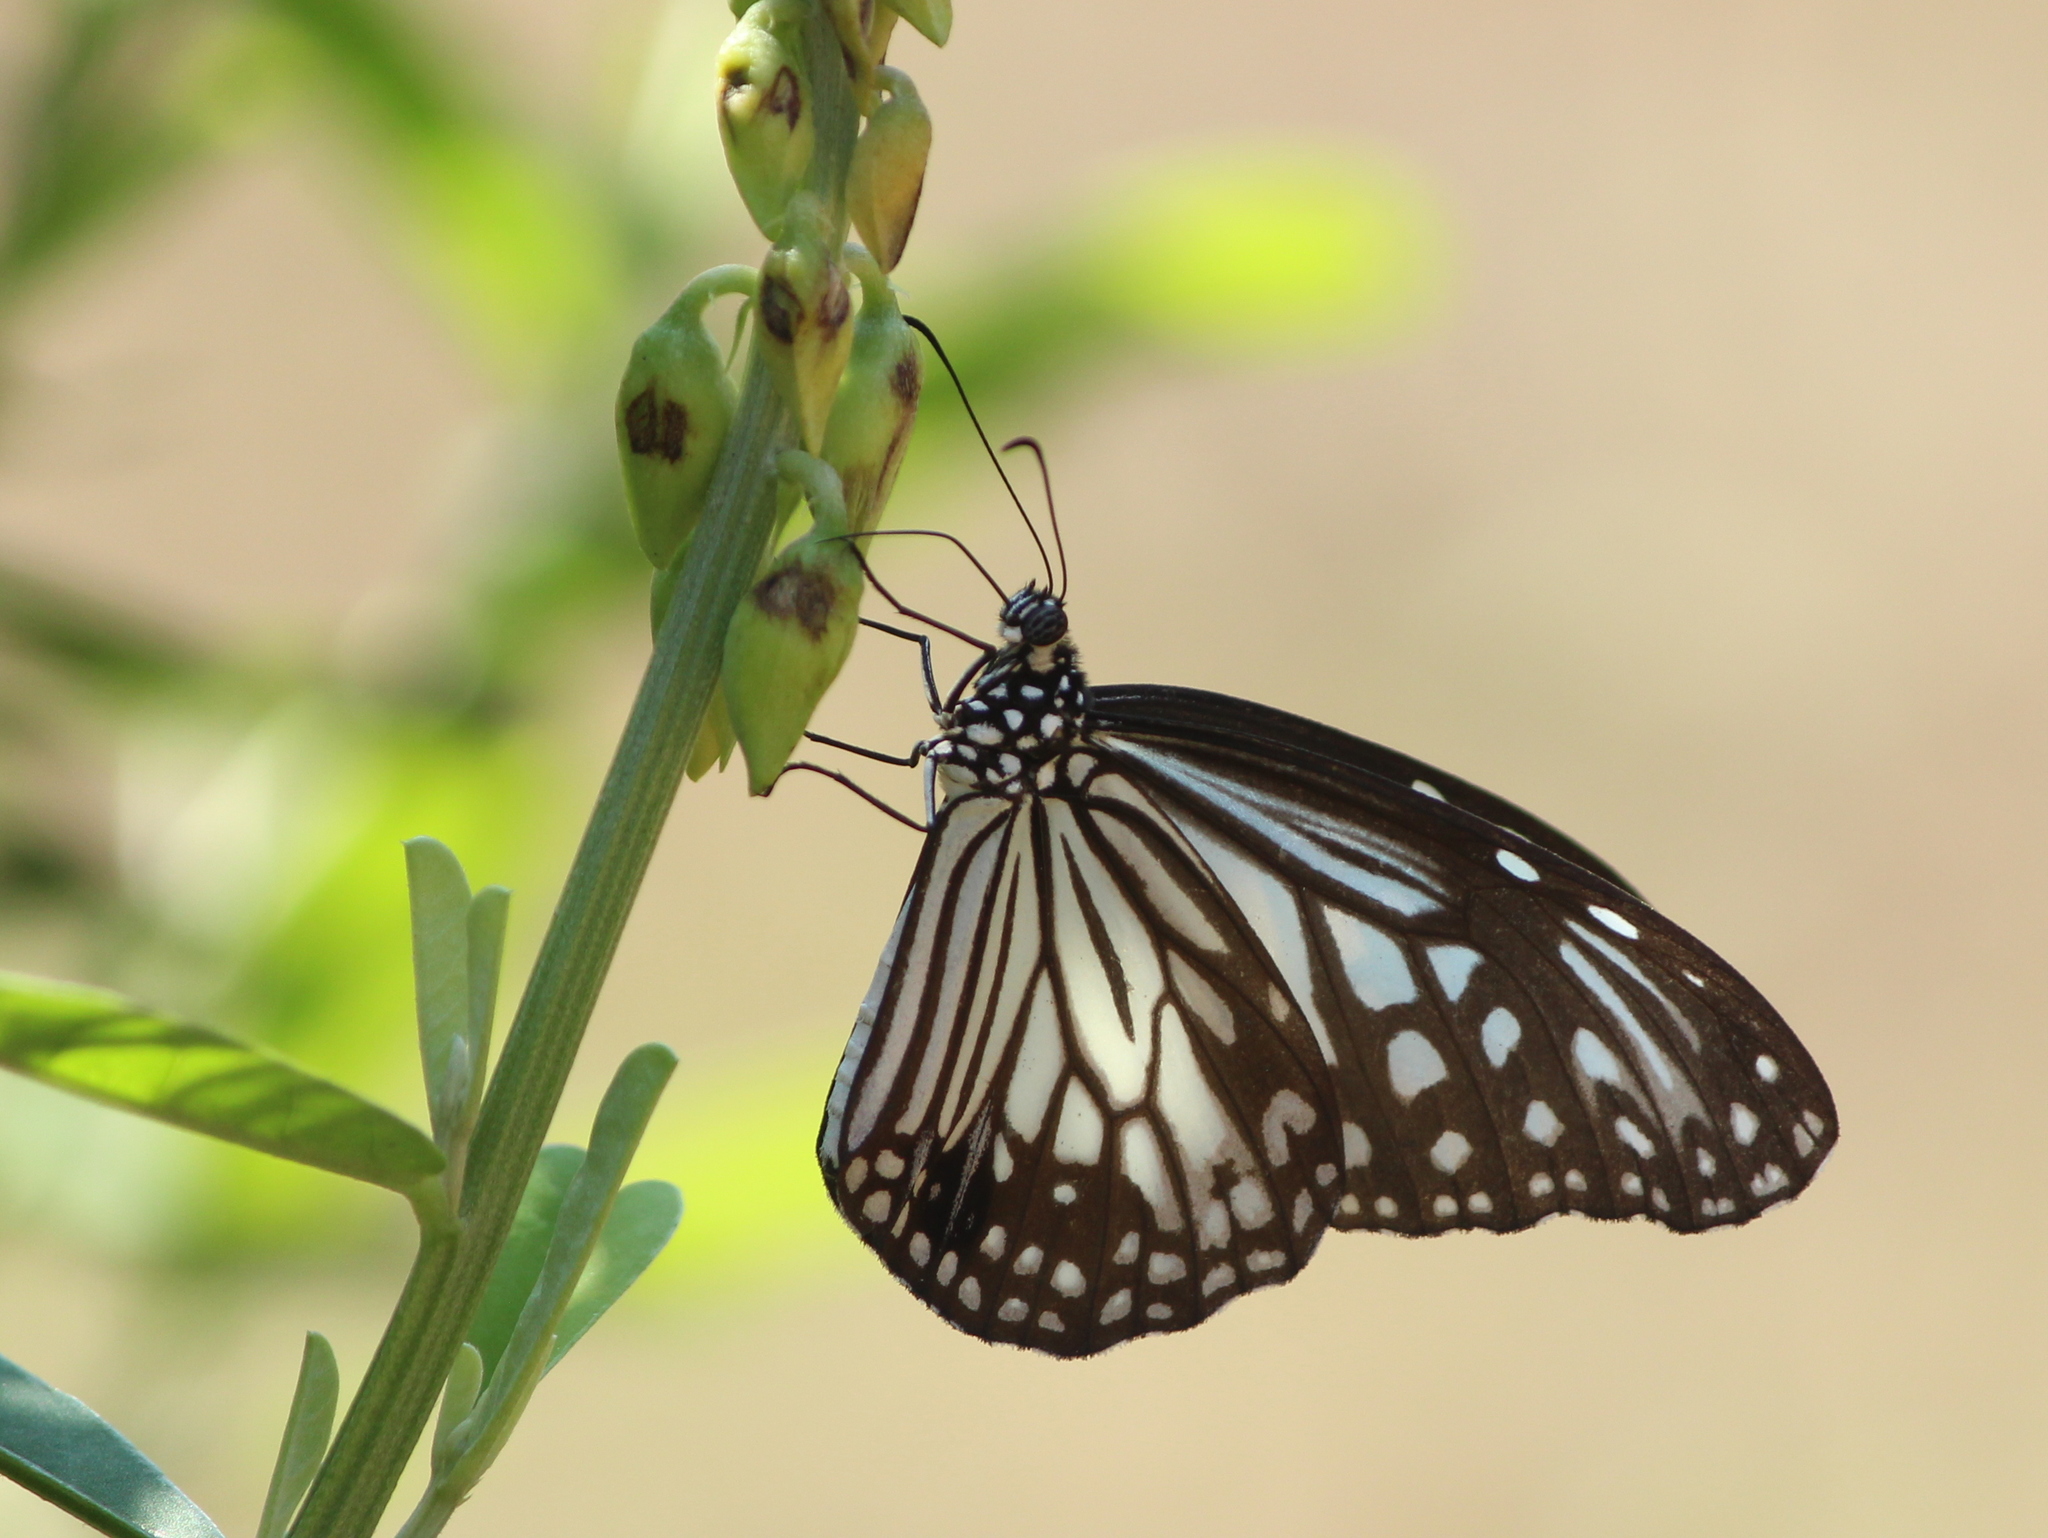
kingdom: Animalia
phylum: Arthropoda
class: Insecta
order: Lepidoptera
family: Nymphalidae
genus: Parantica
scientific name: Parantica aglea
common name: Glassy tiger
